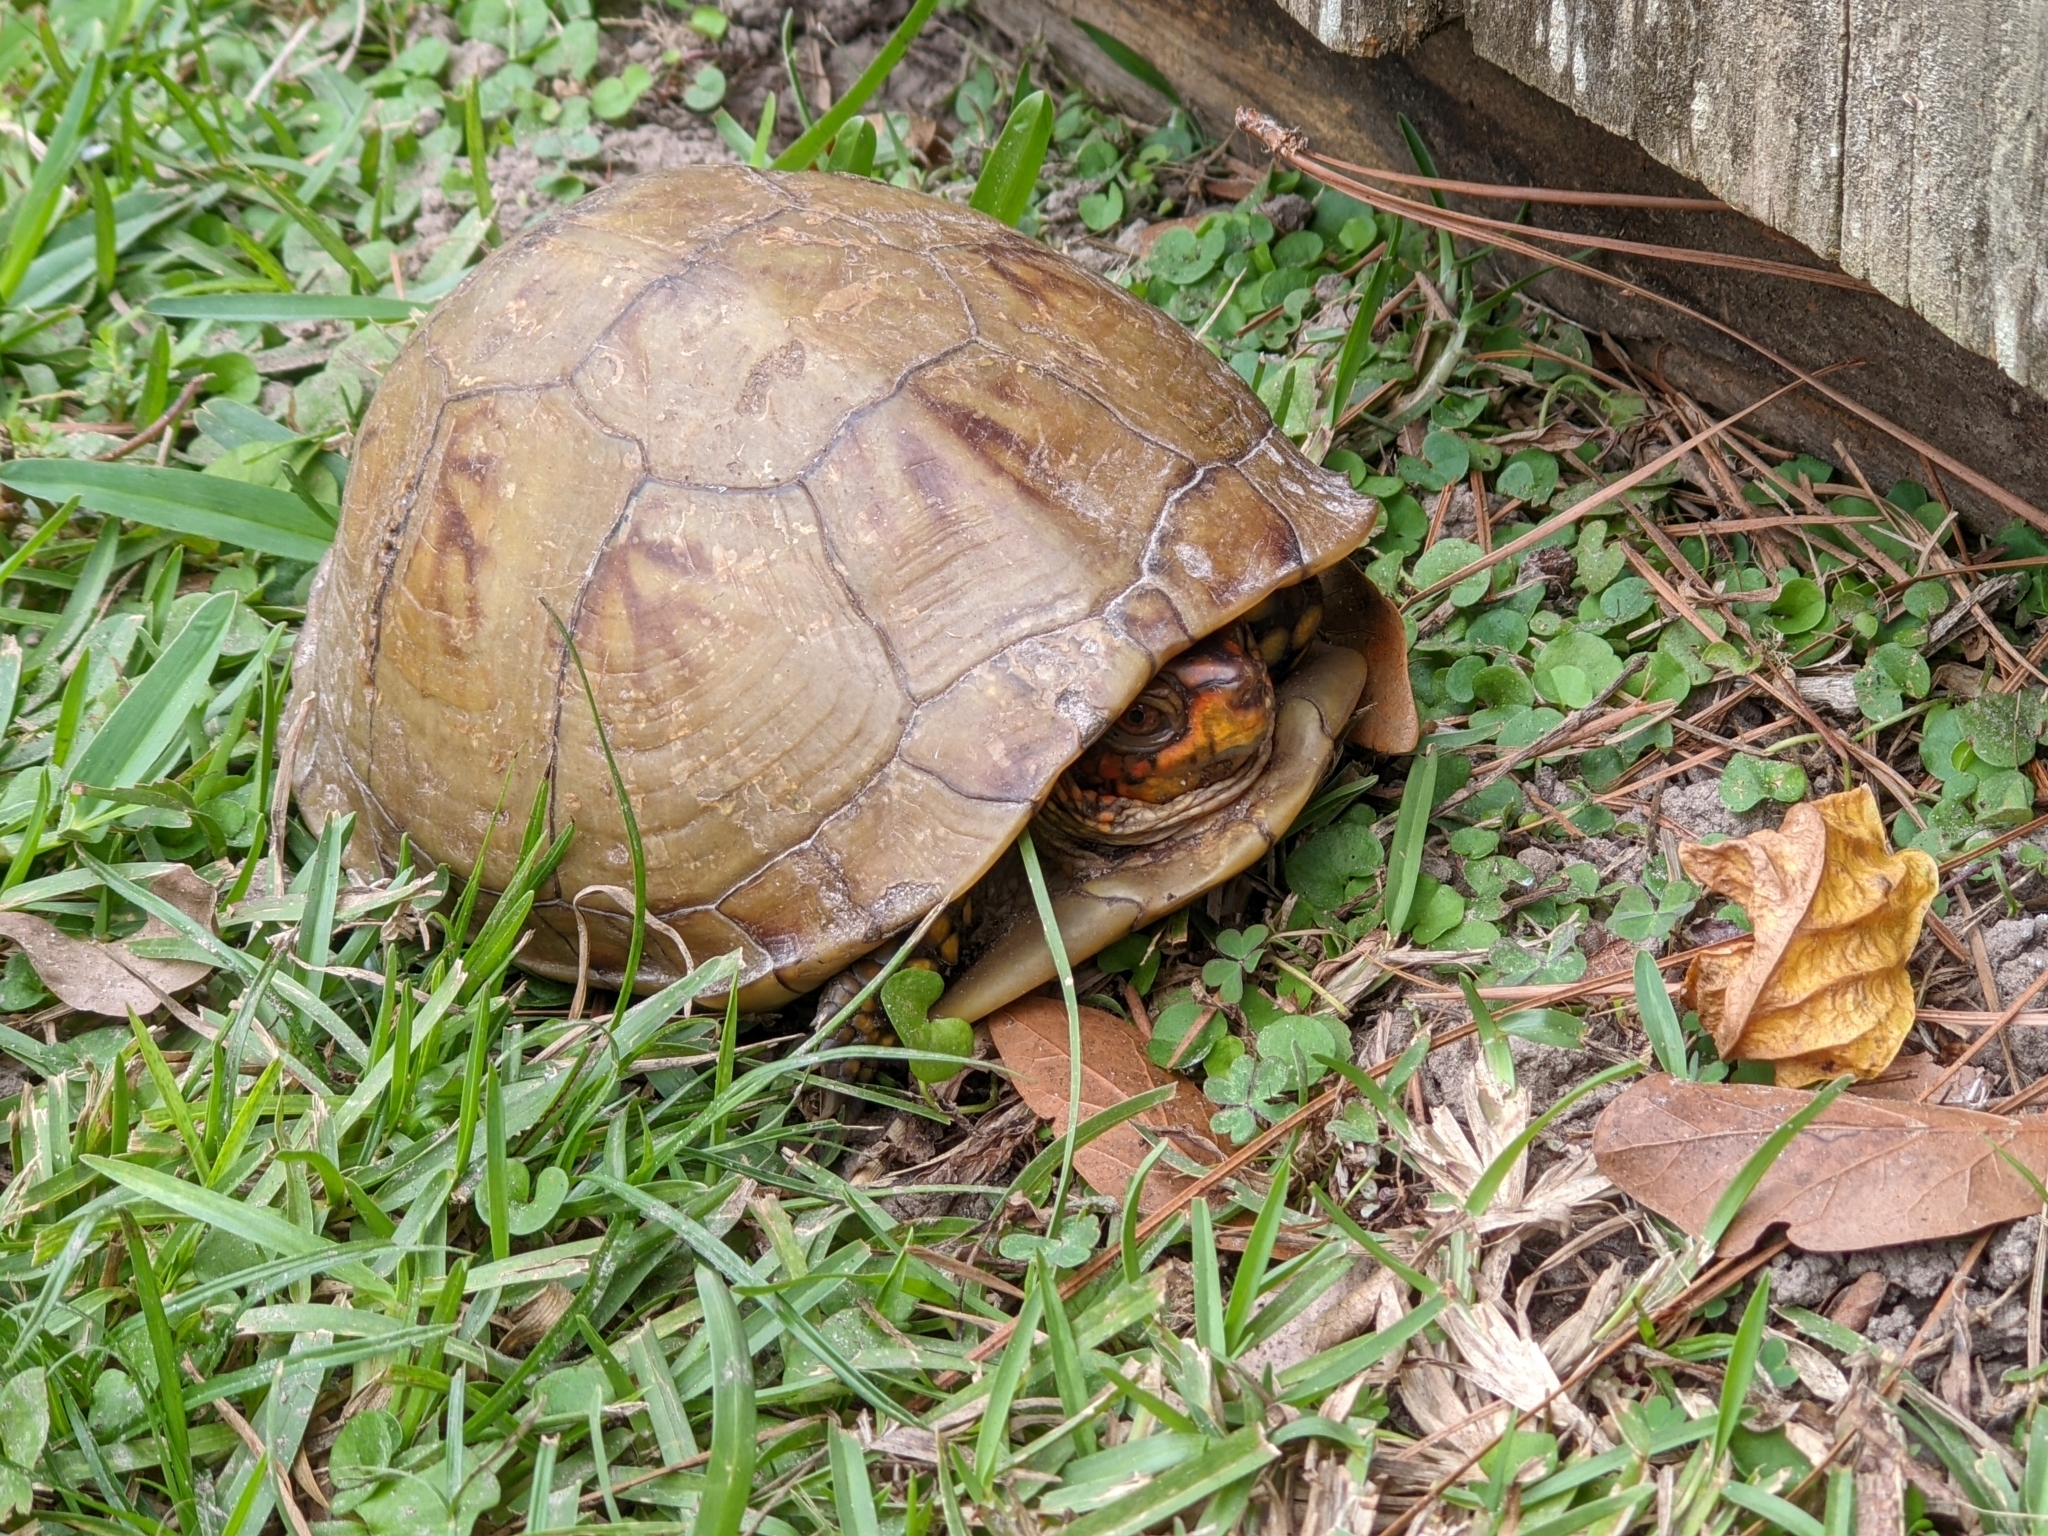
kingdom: Animalia
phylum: Chordata
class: Testudines
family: Emydidae
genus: Terrapene
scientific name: Terrapene carolina
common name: Common box turtle
